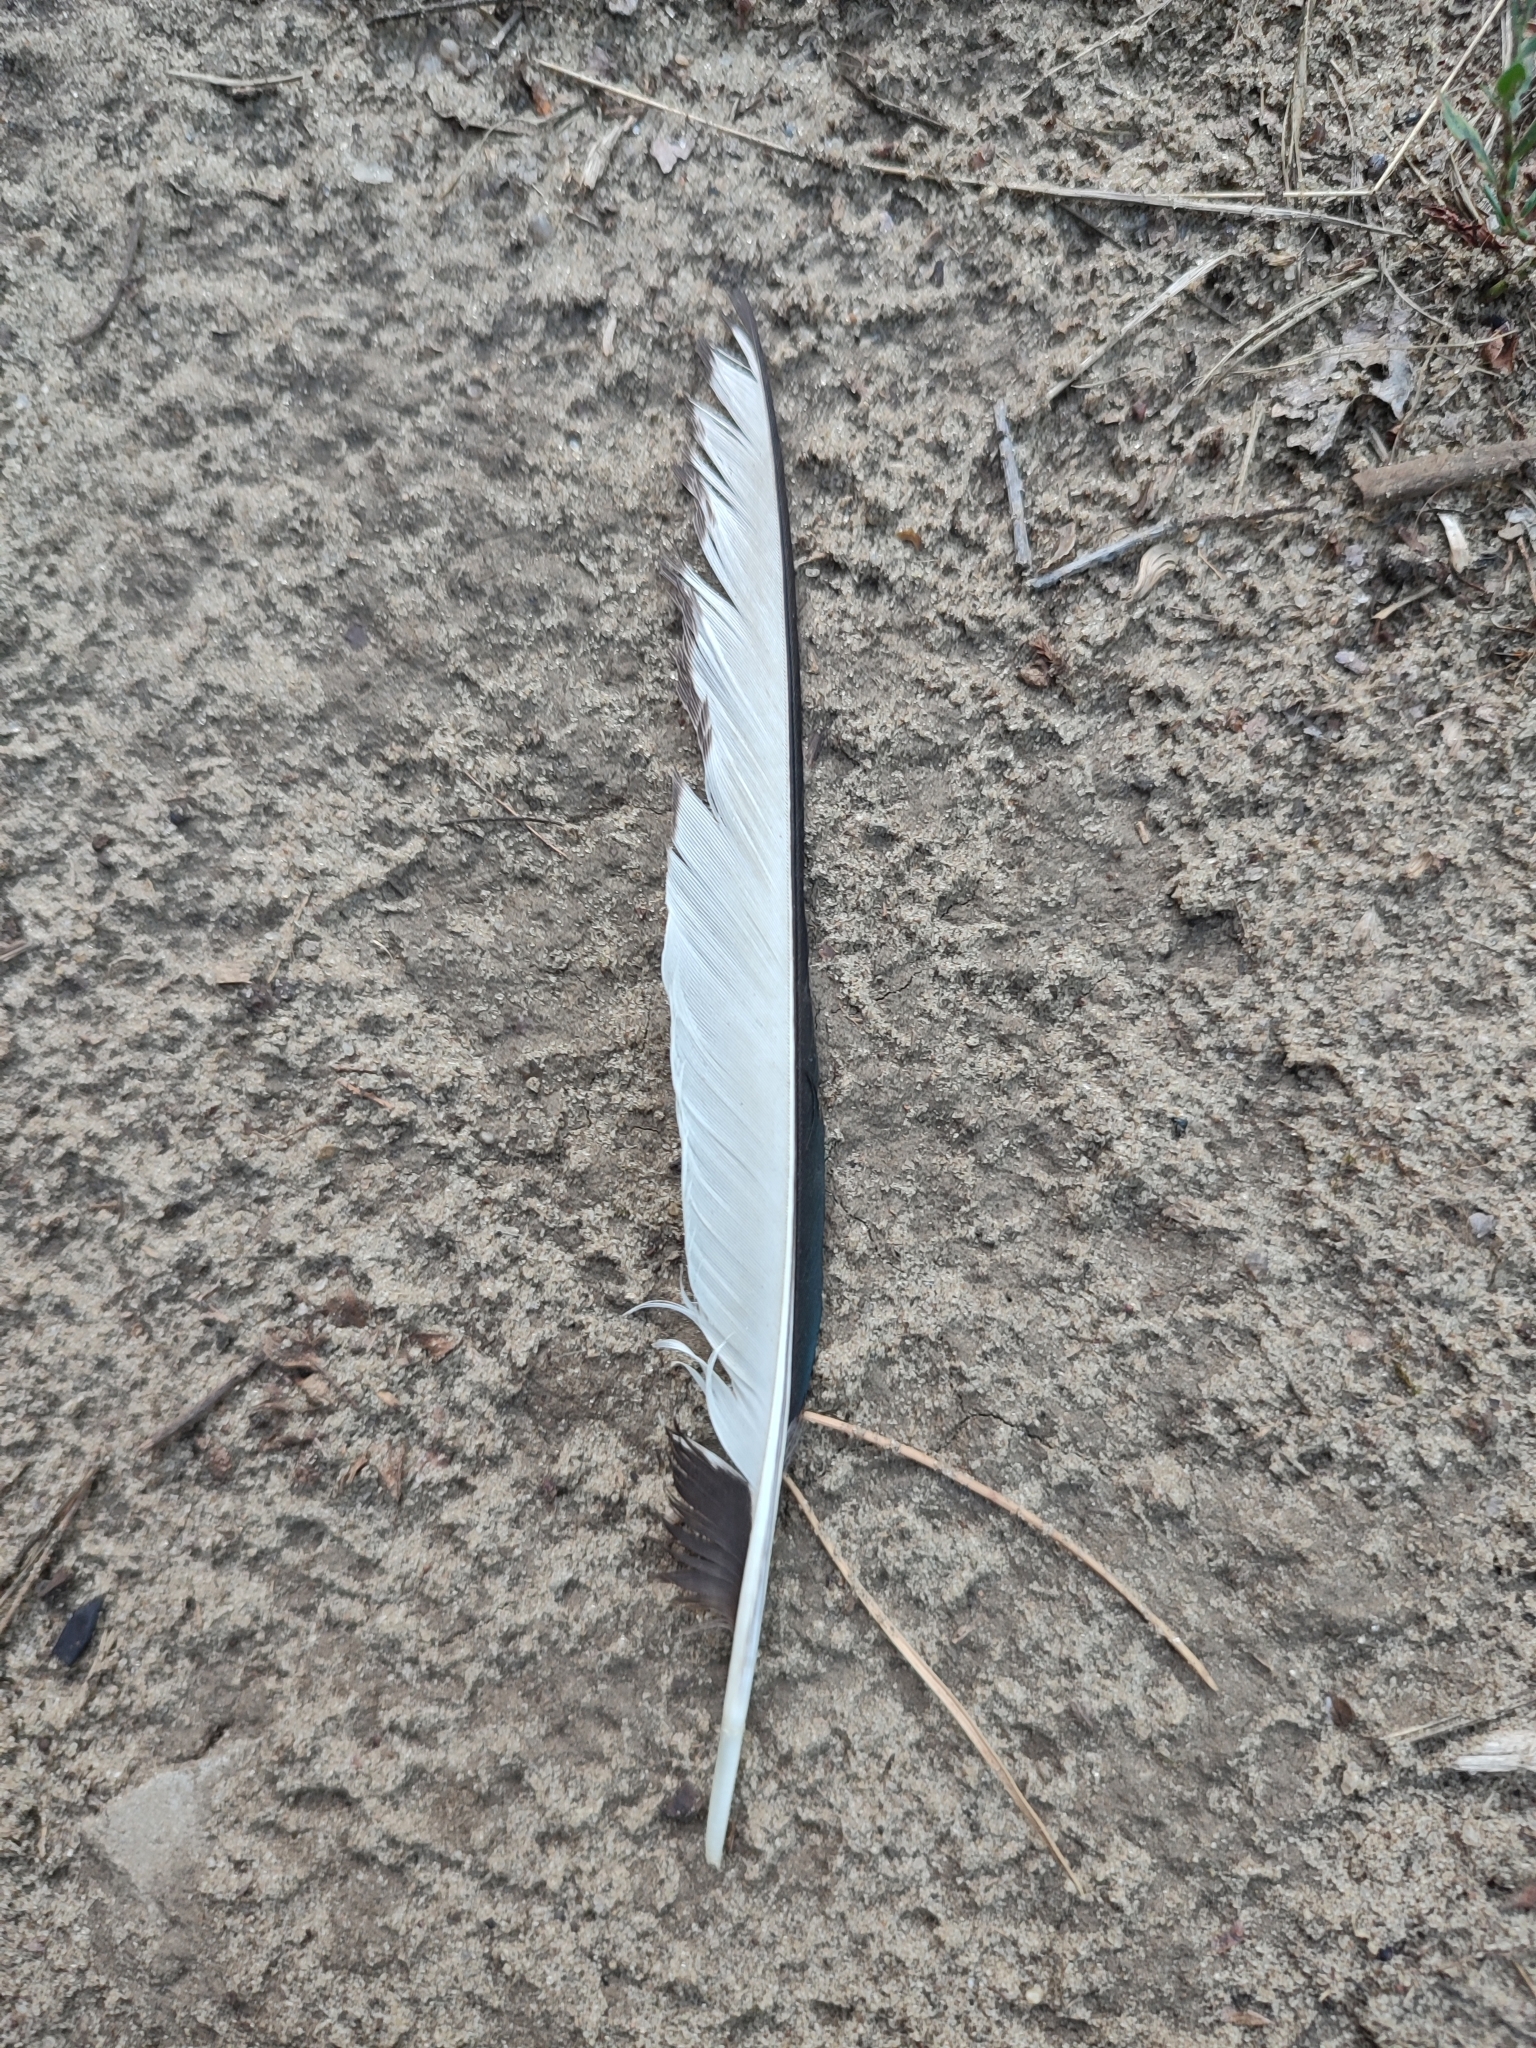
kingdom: Animalia
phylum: Chordata
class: Aves
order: Passeriformes
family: Corvidae
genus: Pica
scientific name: Pica pica
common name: Eurasian magpie
